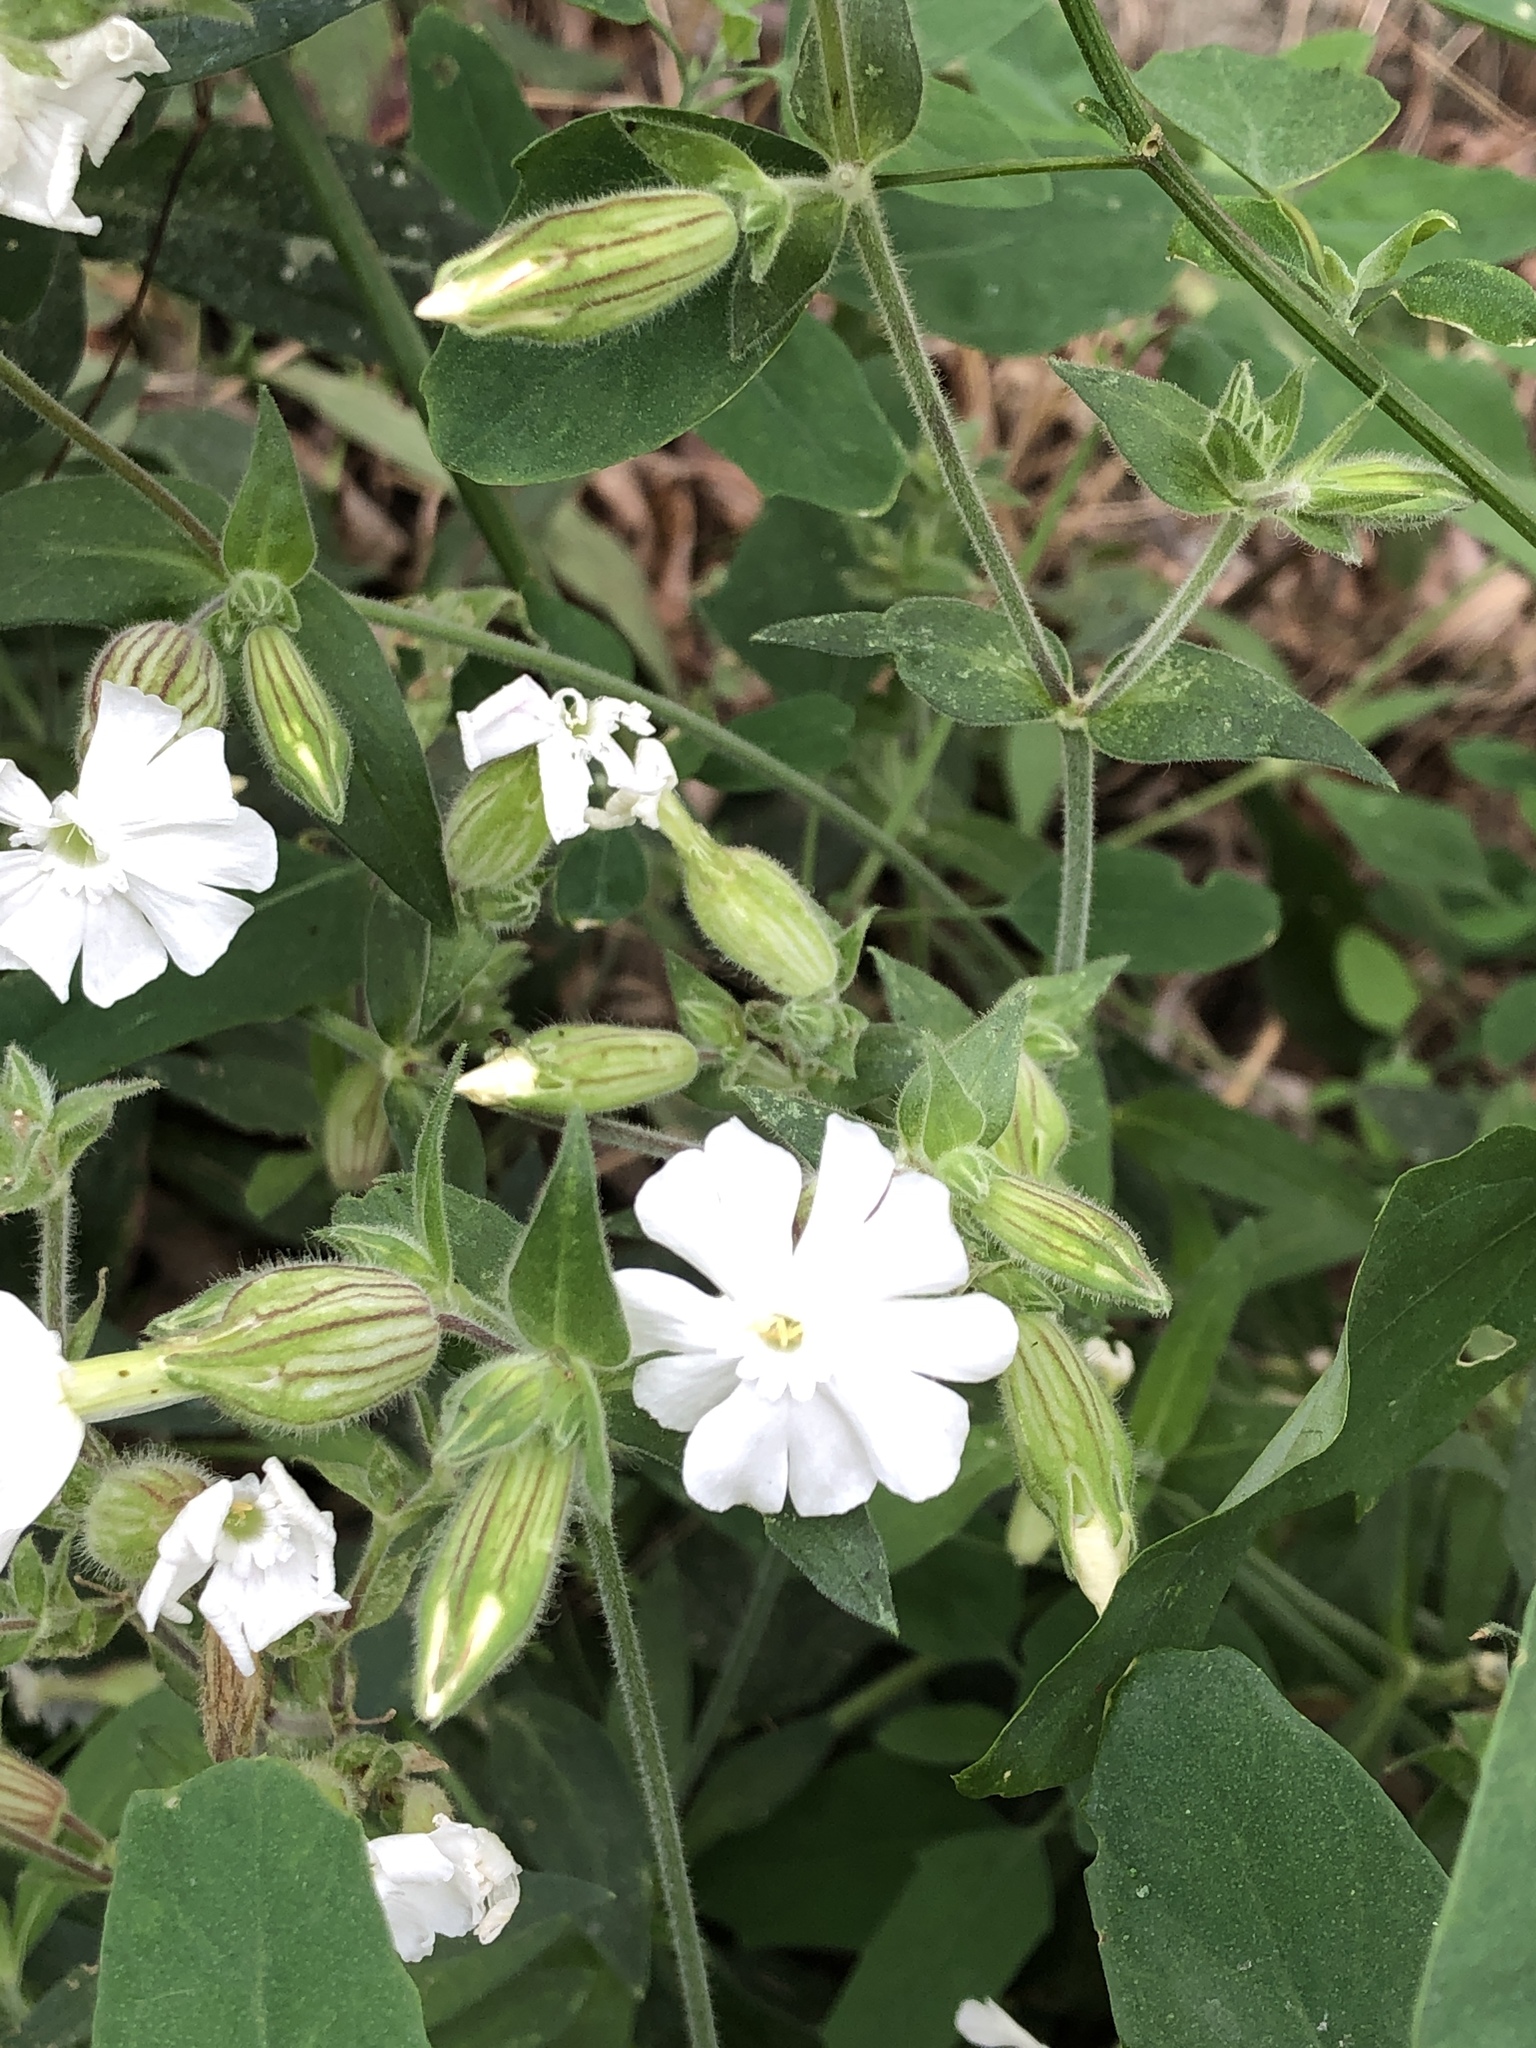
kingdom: Plantae
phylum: Tracheophyta
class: Magnoliopsida
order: Caryophyllales
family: Caryophyllaceae
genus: Silene
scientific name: Silene latifolia
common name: White campion
